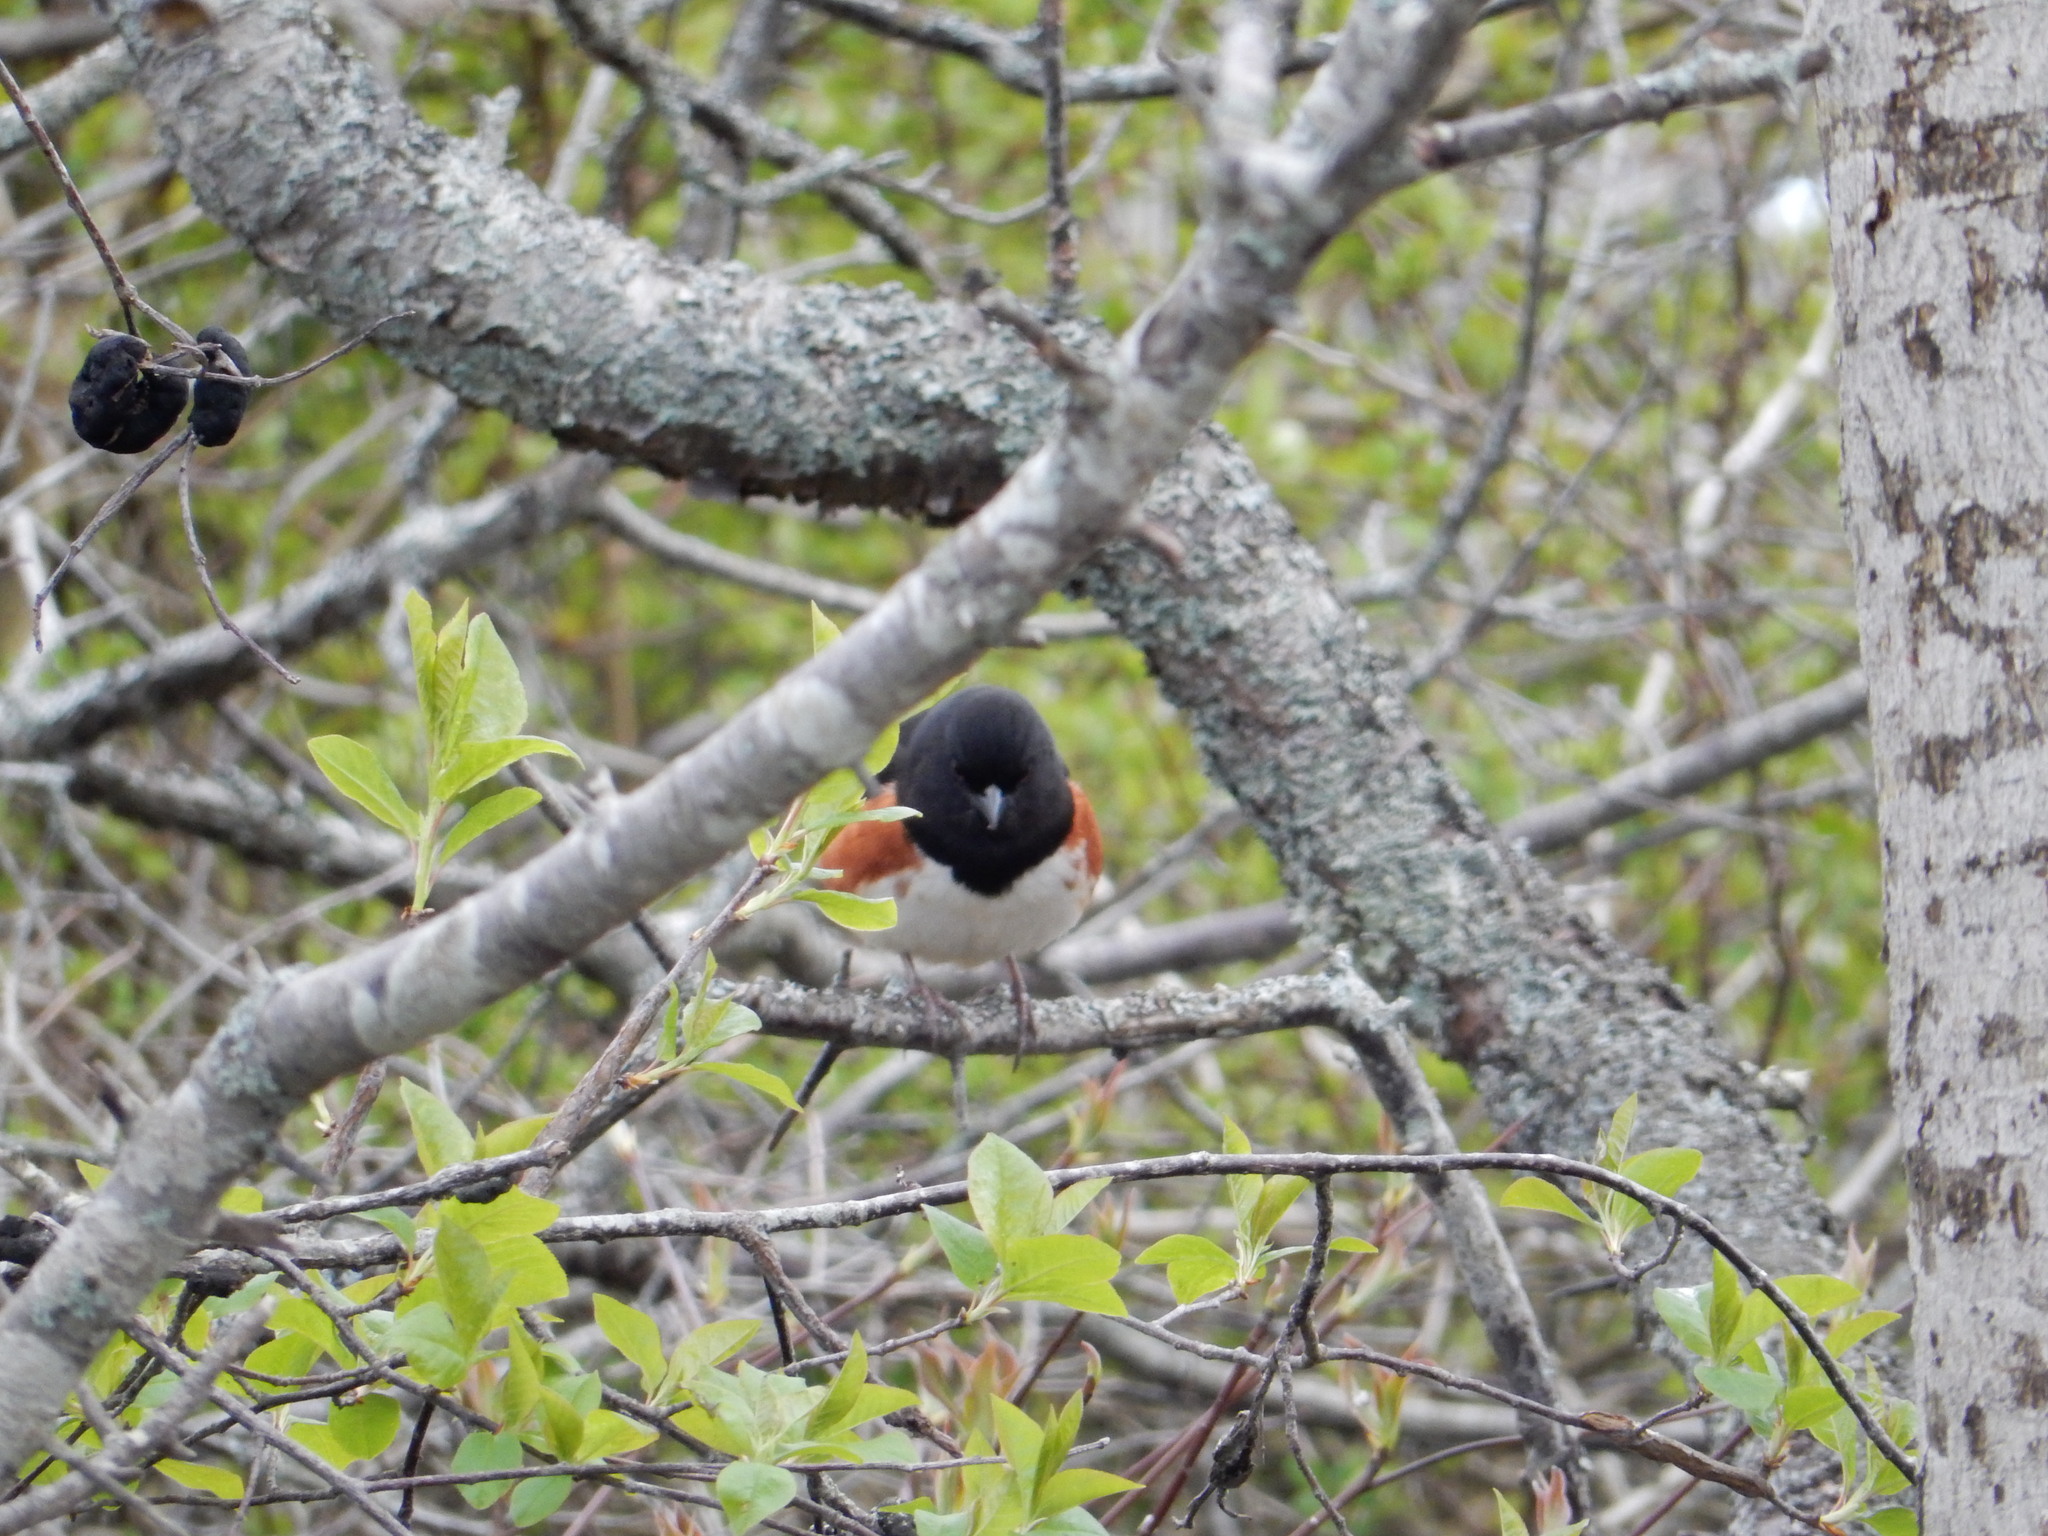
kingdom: Animalia
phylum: Chordata
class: Aves
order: Passeriformes
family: Passerellidae
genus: Pipilo
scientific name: Pipilo erythrophthalmus
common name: Eastern towhee
